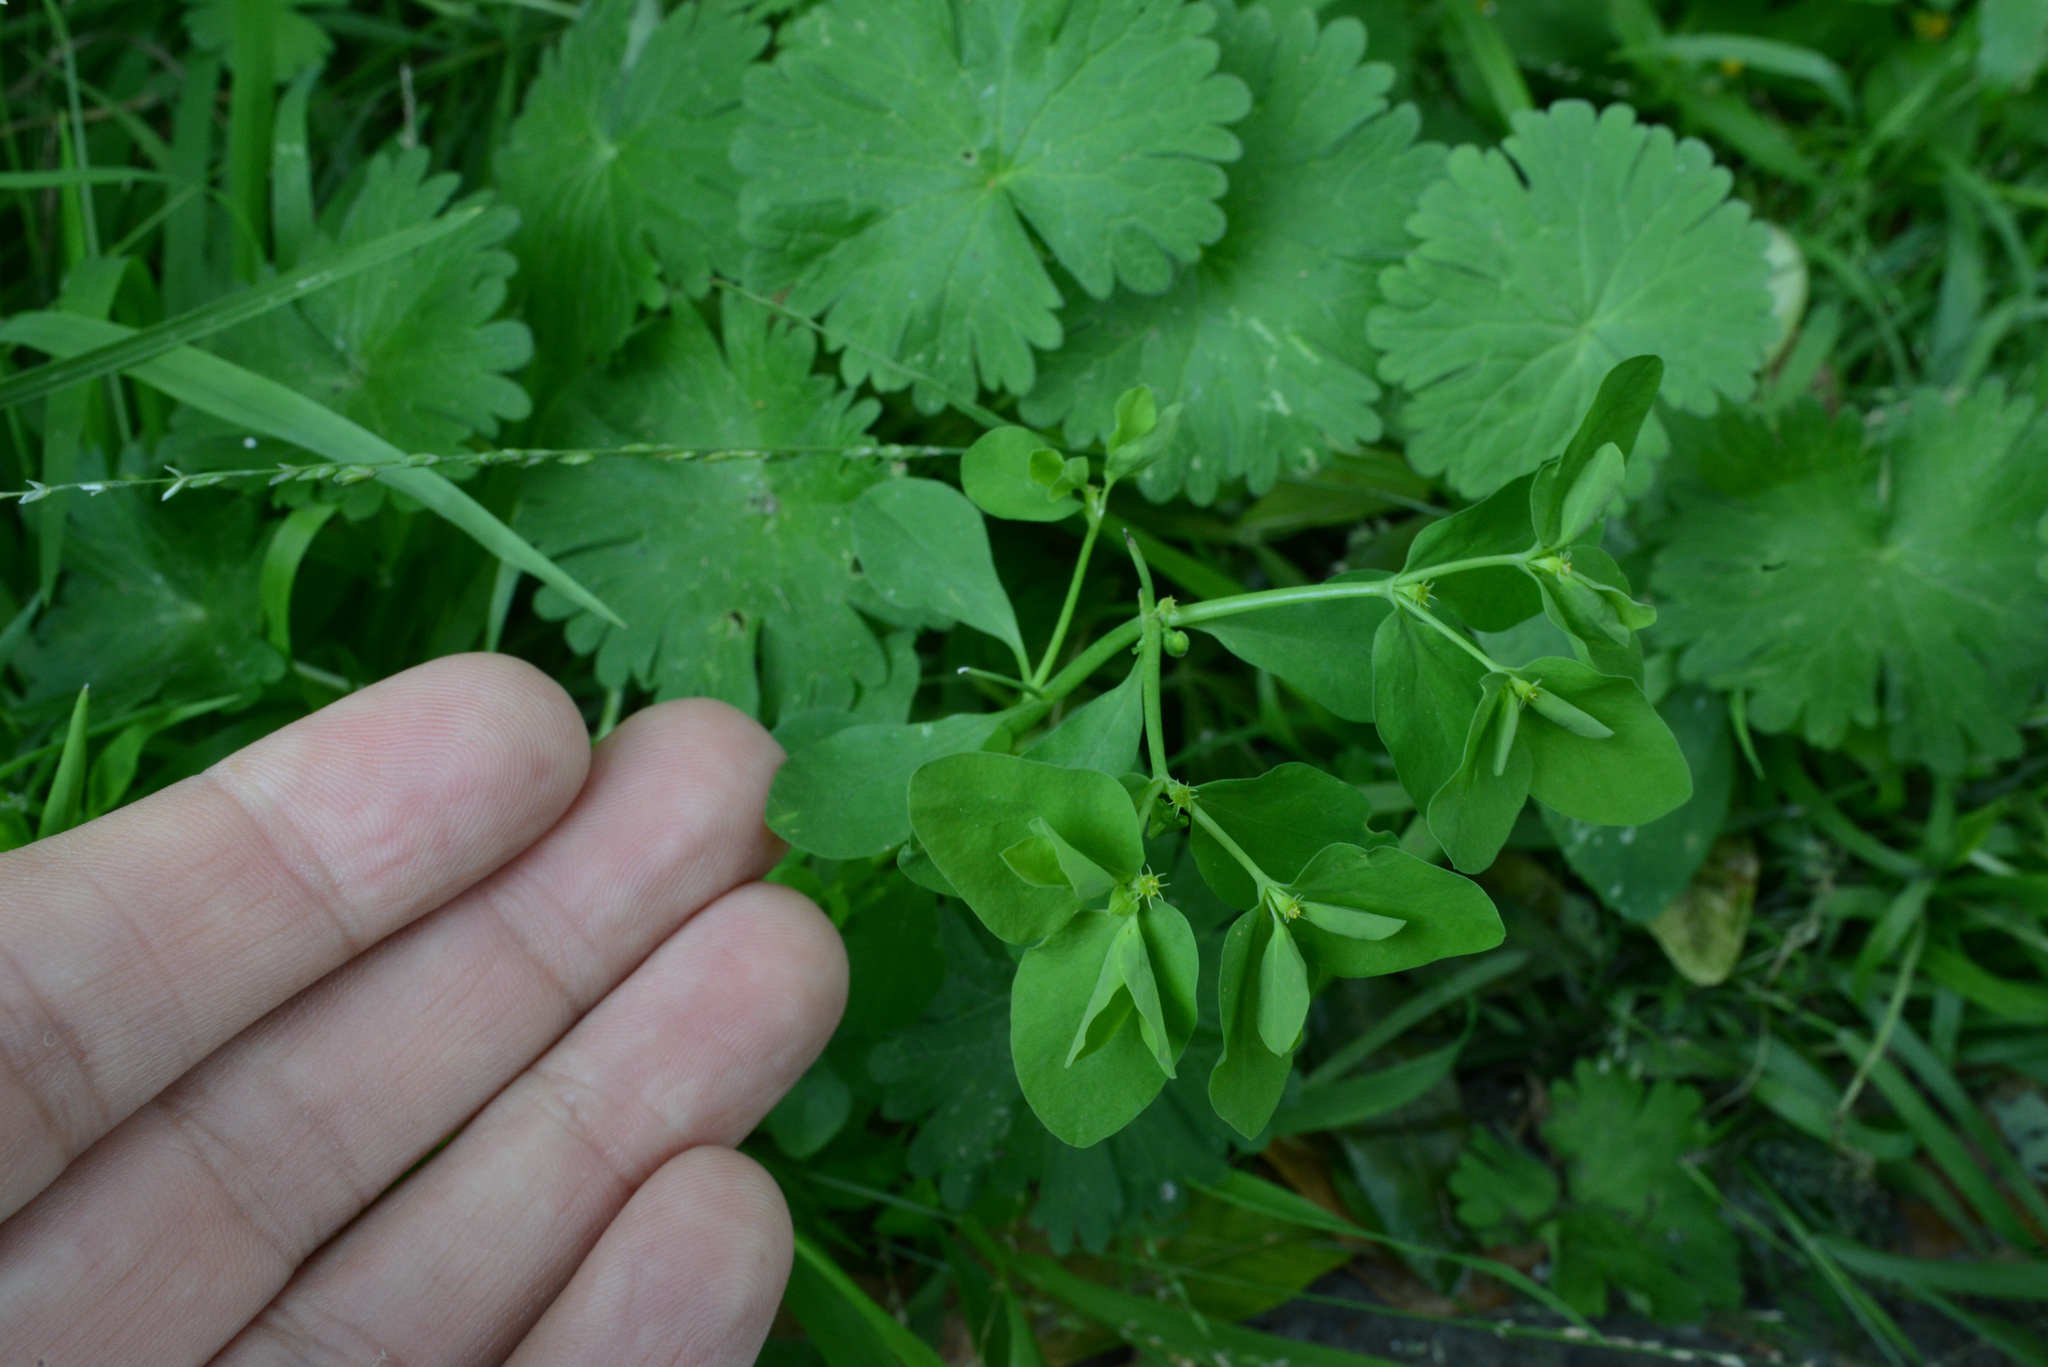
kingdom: Plantae
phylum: Tracheophyta
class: Magnoliopsida
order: Malpighiales
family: Euphorbiaceae
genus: Euphorbia
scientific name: Euphorbia peplus
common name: Petty spurge
